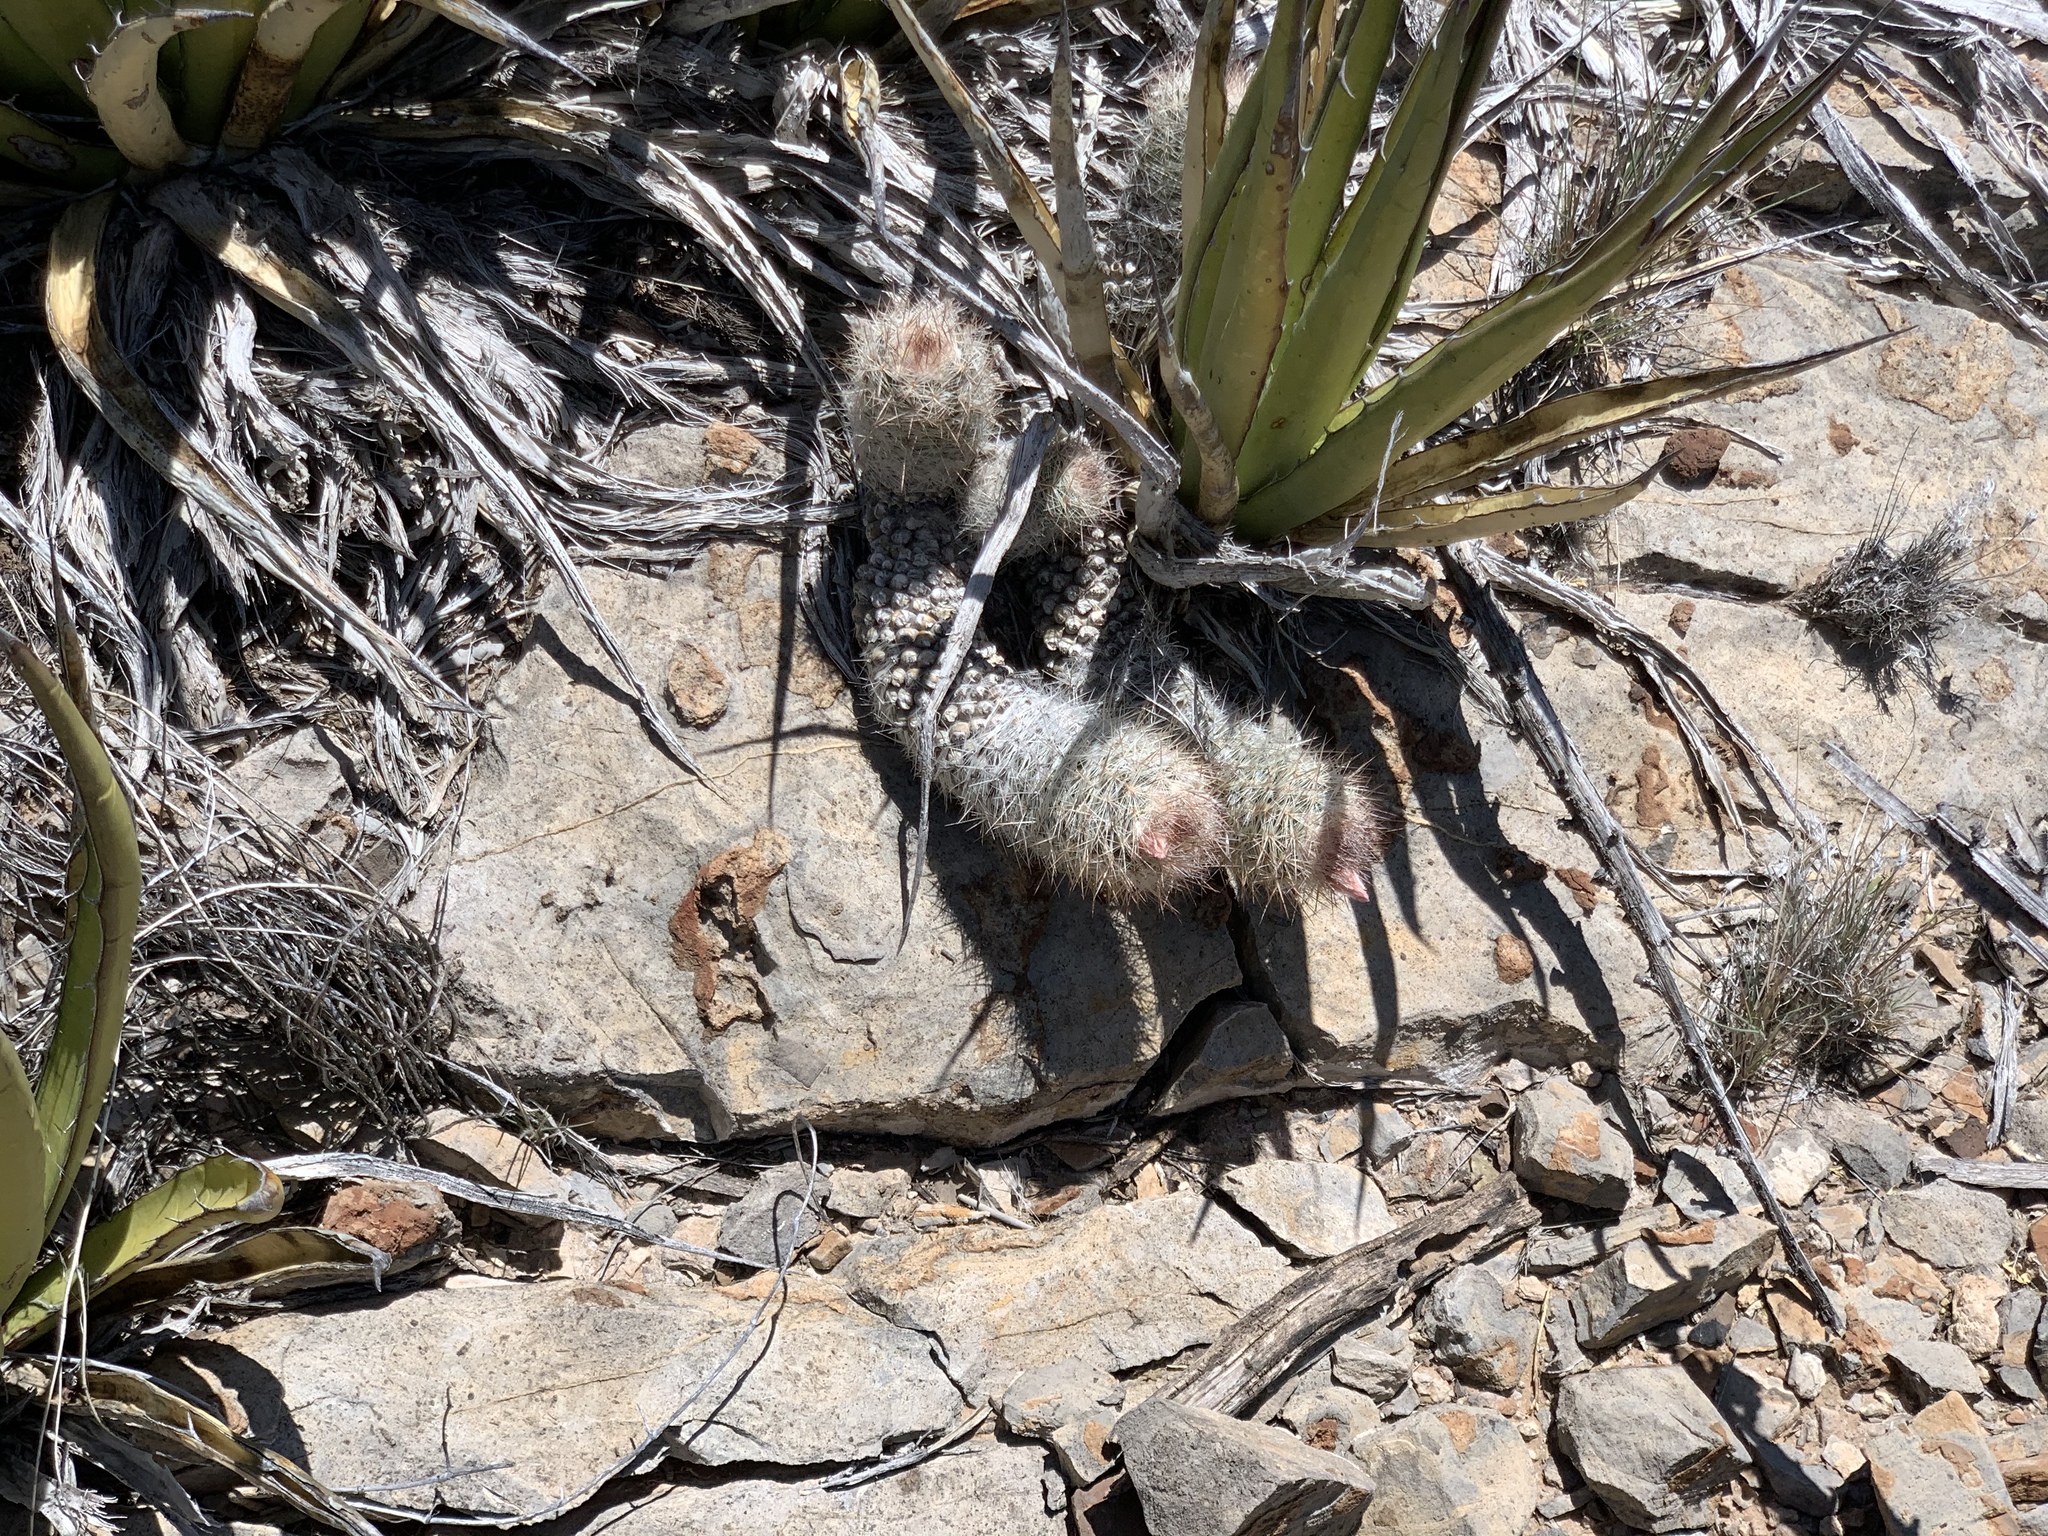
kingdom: Plantae
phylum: Tracheophyta
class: Magnoliopsida
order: Caryophyllales
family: Cactaceae
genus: Pelecyphora
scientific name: Pelecyphora tuberculosa
